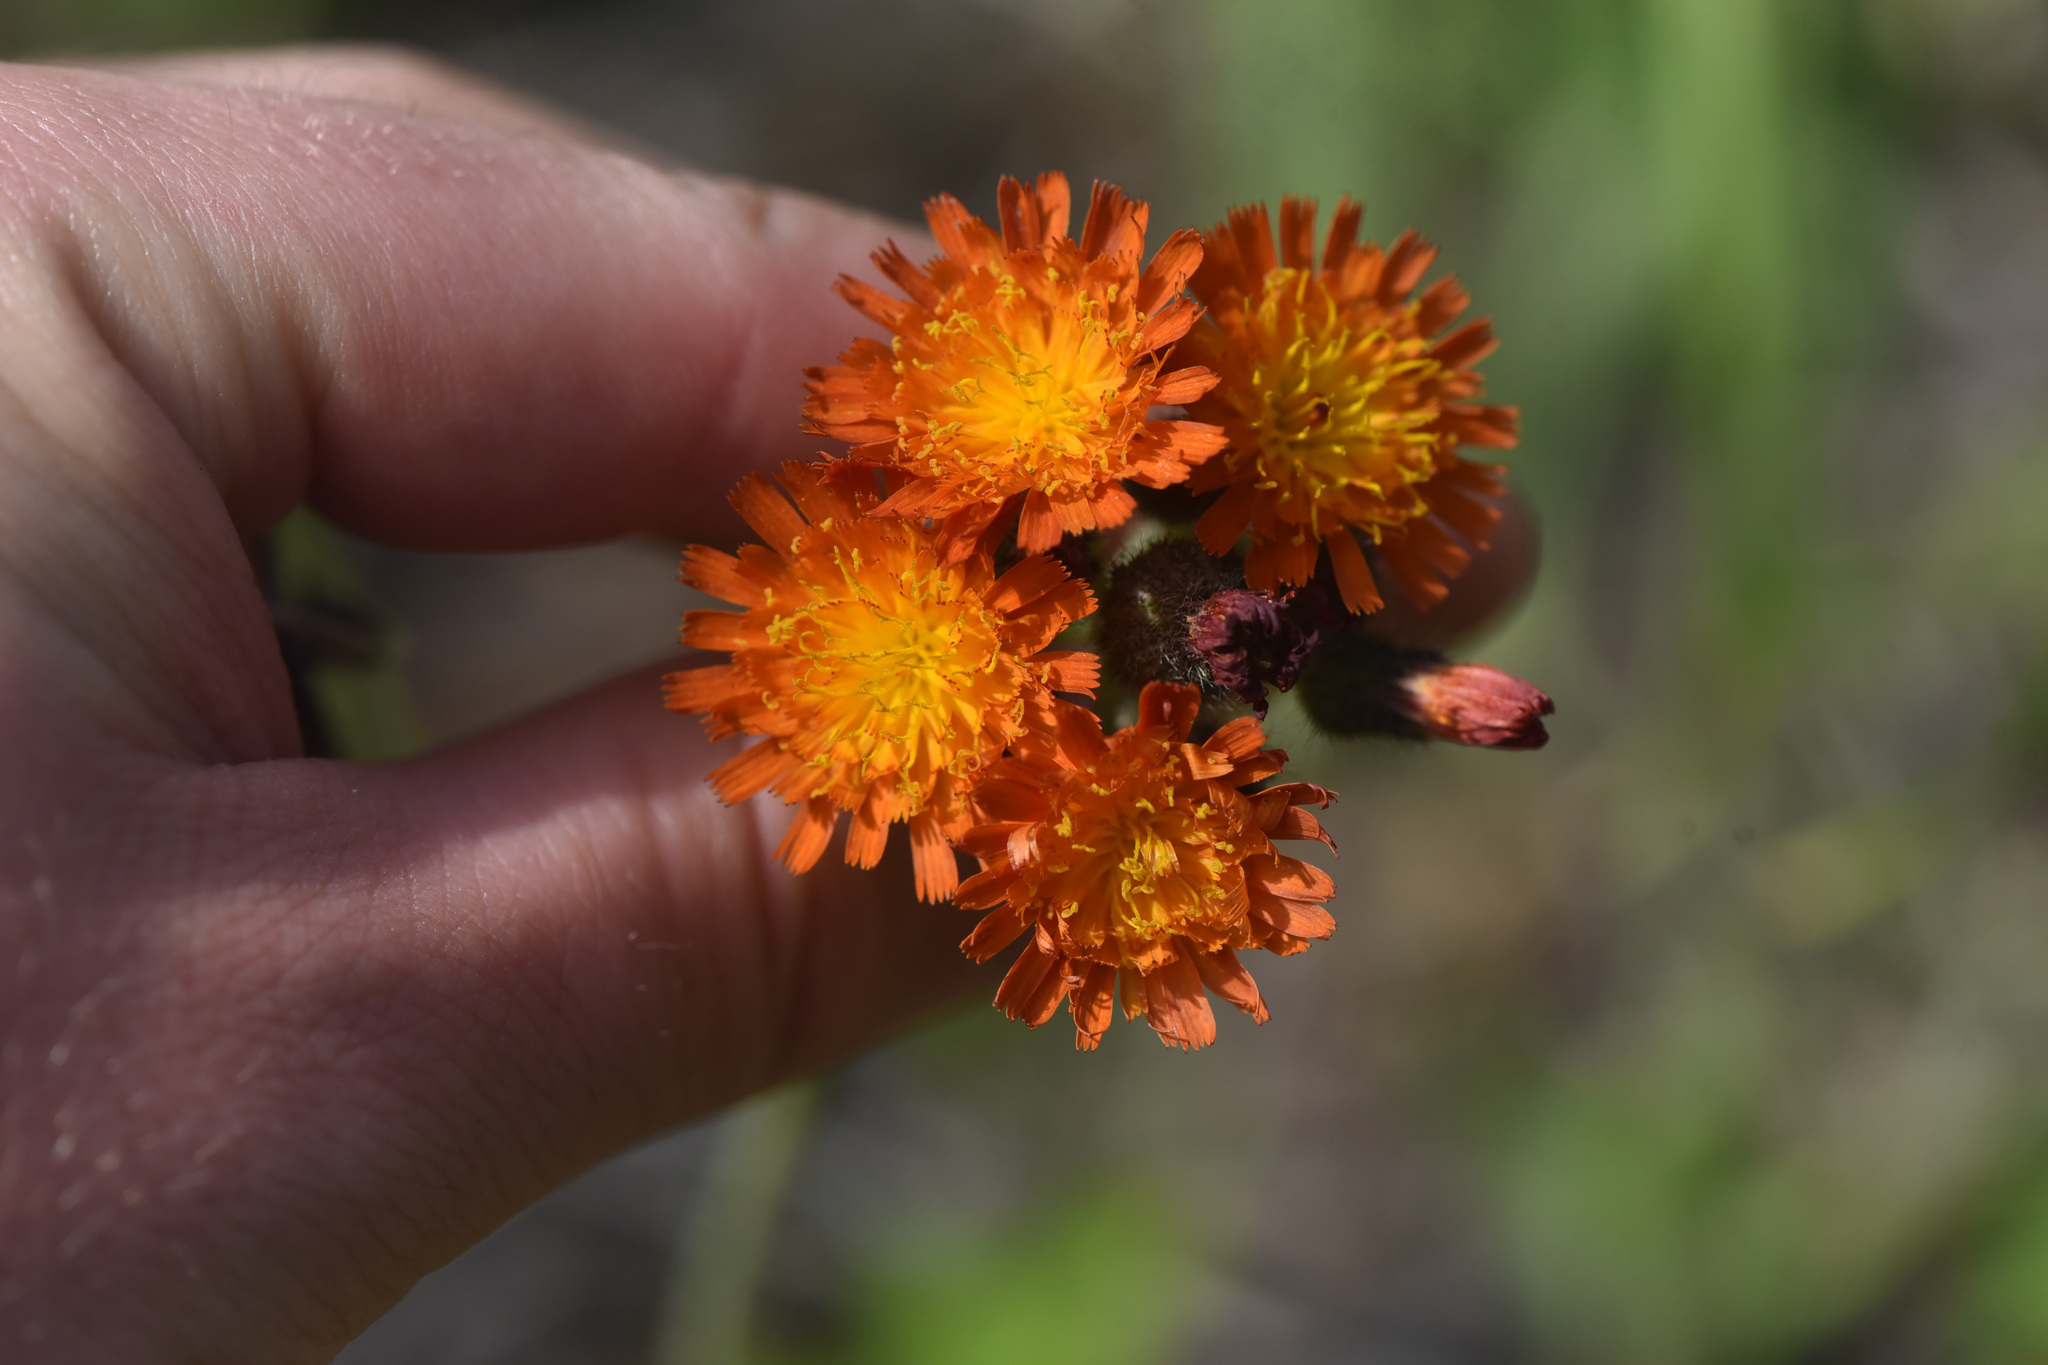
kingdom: Plantae
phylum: Tracheophyta
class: Magnoliopsida
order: Asterales
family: Asteraceae
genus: Pilosella
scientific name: Pilosella aurantiaca
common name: Fox-and-cubs
